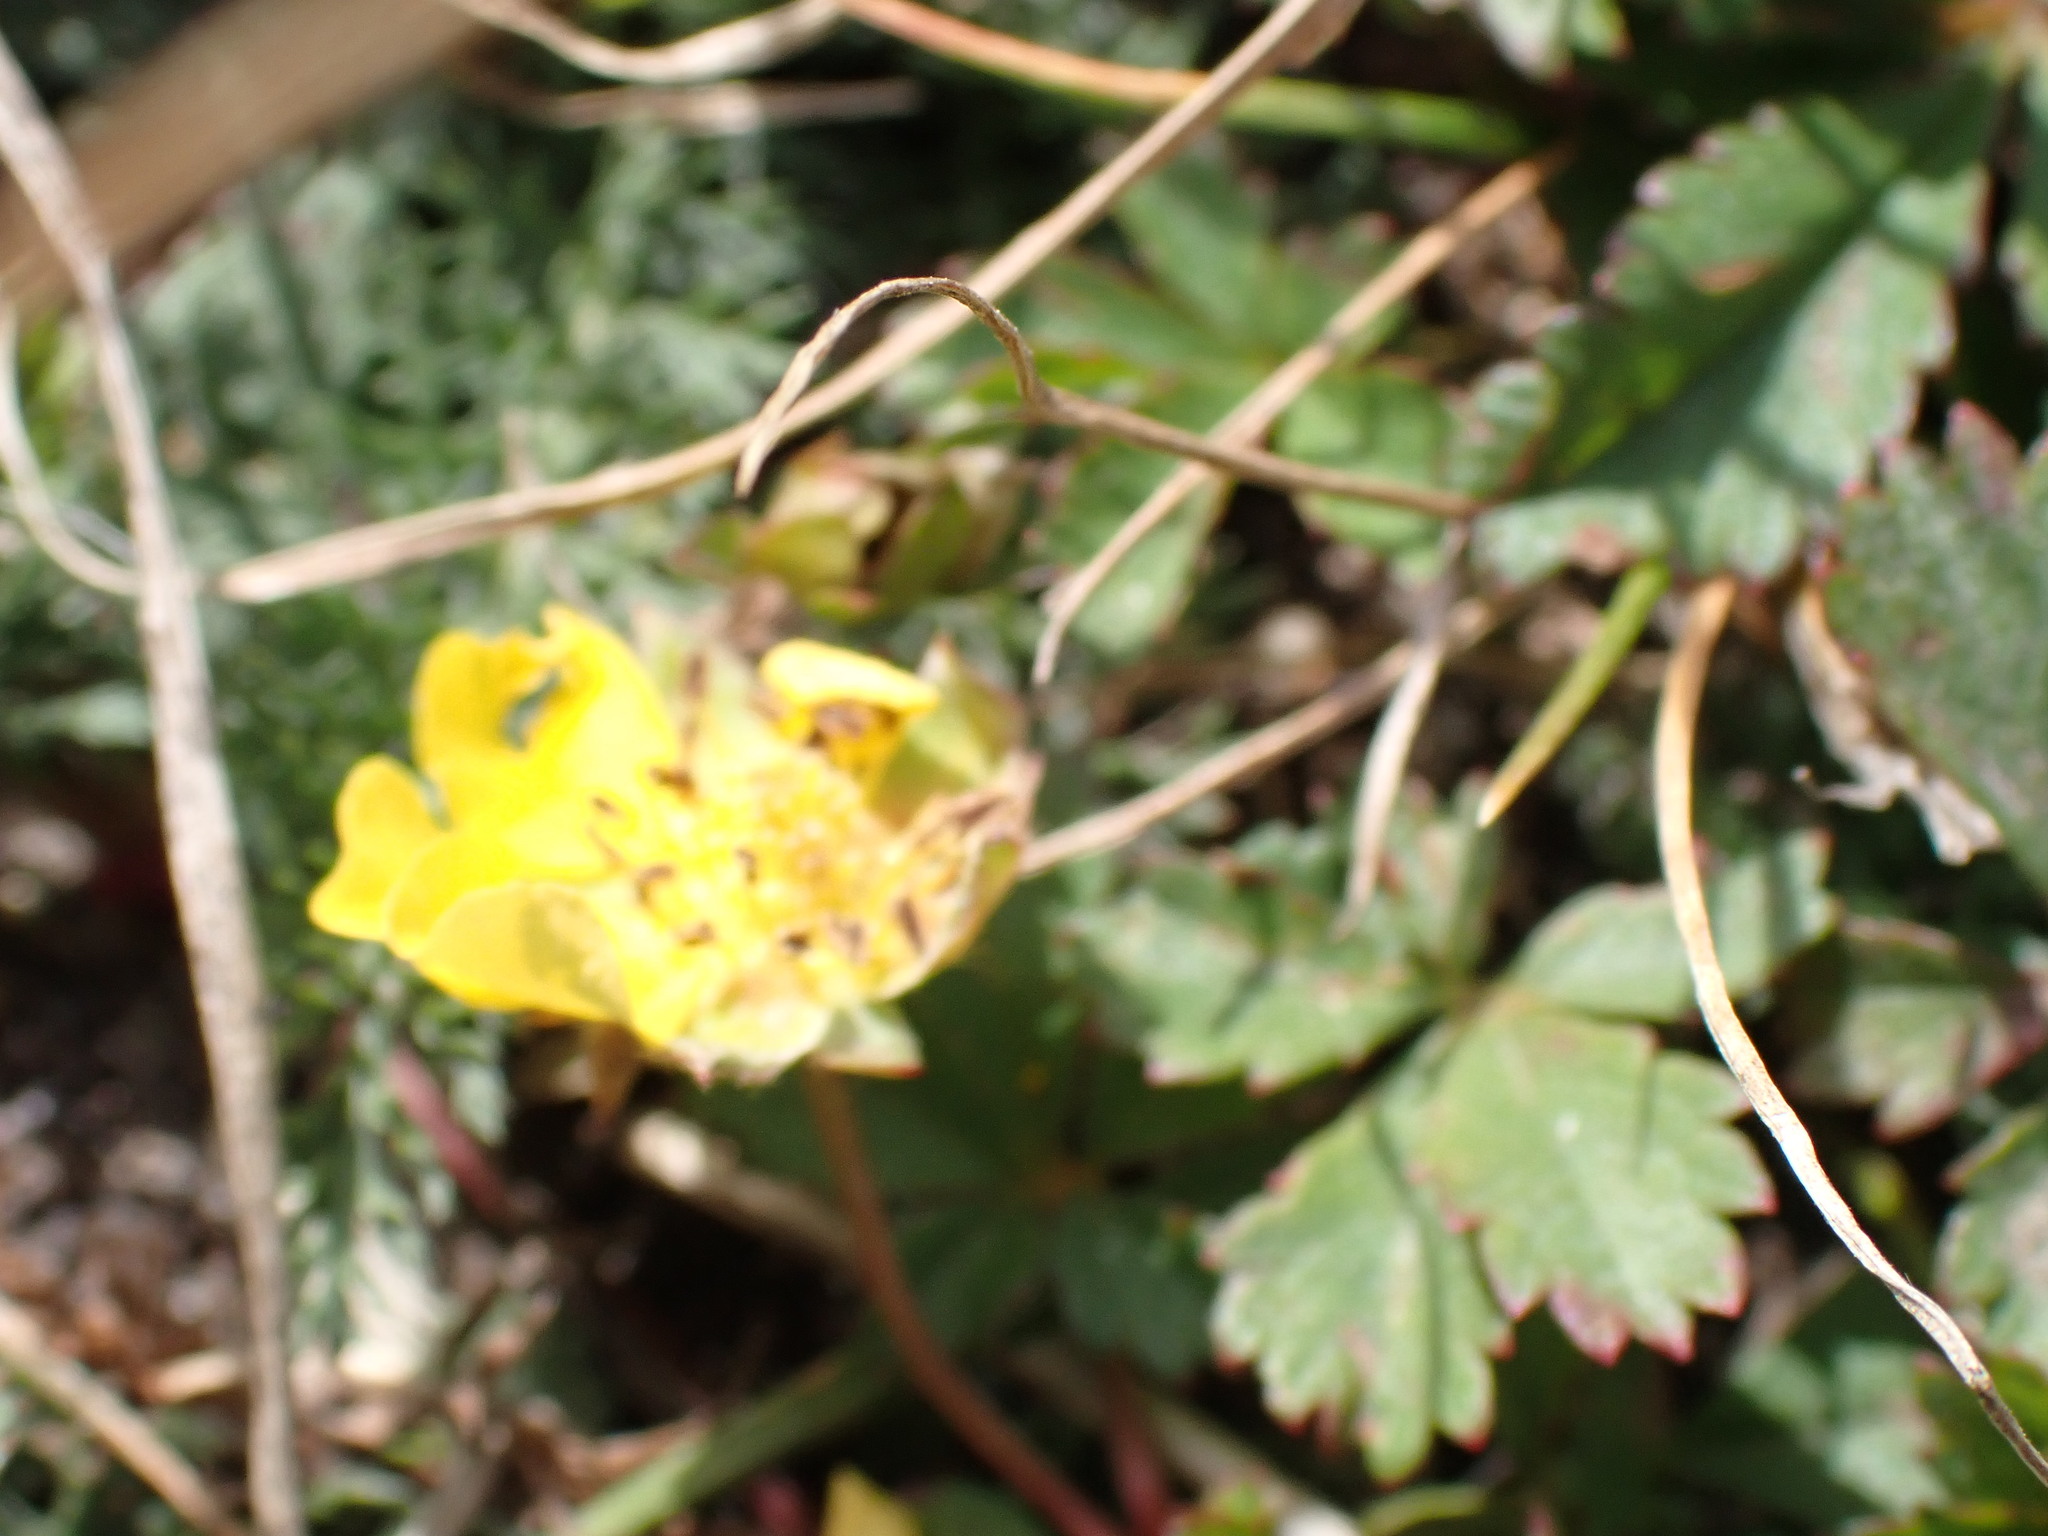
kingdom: Plantae
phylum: Tracheophyta
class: Magnoliopsida
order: Rosales
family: Rosaceae
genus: Potentilla
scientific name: Potentilla reptans
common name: Creeping cinquefoil
